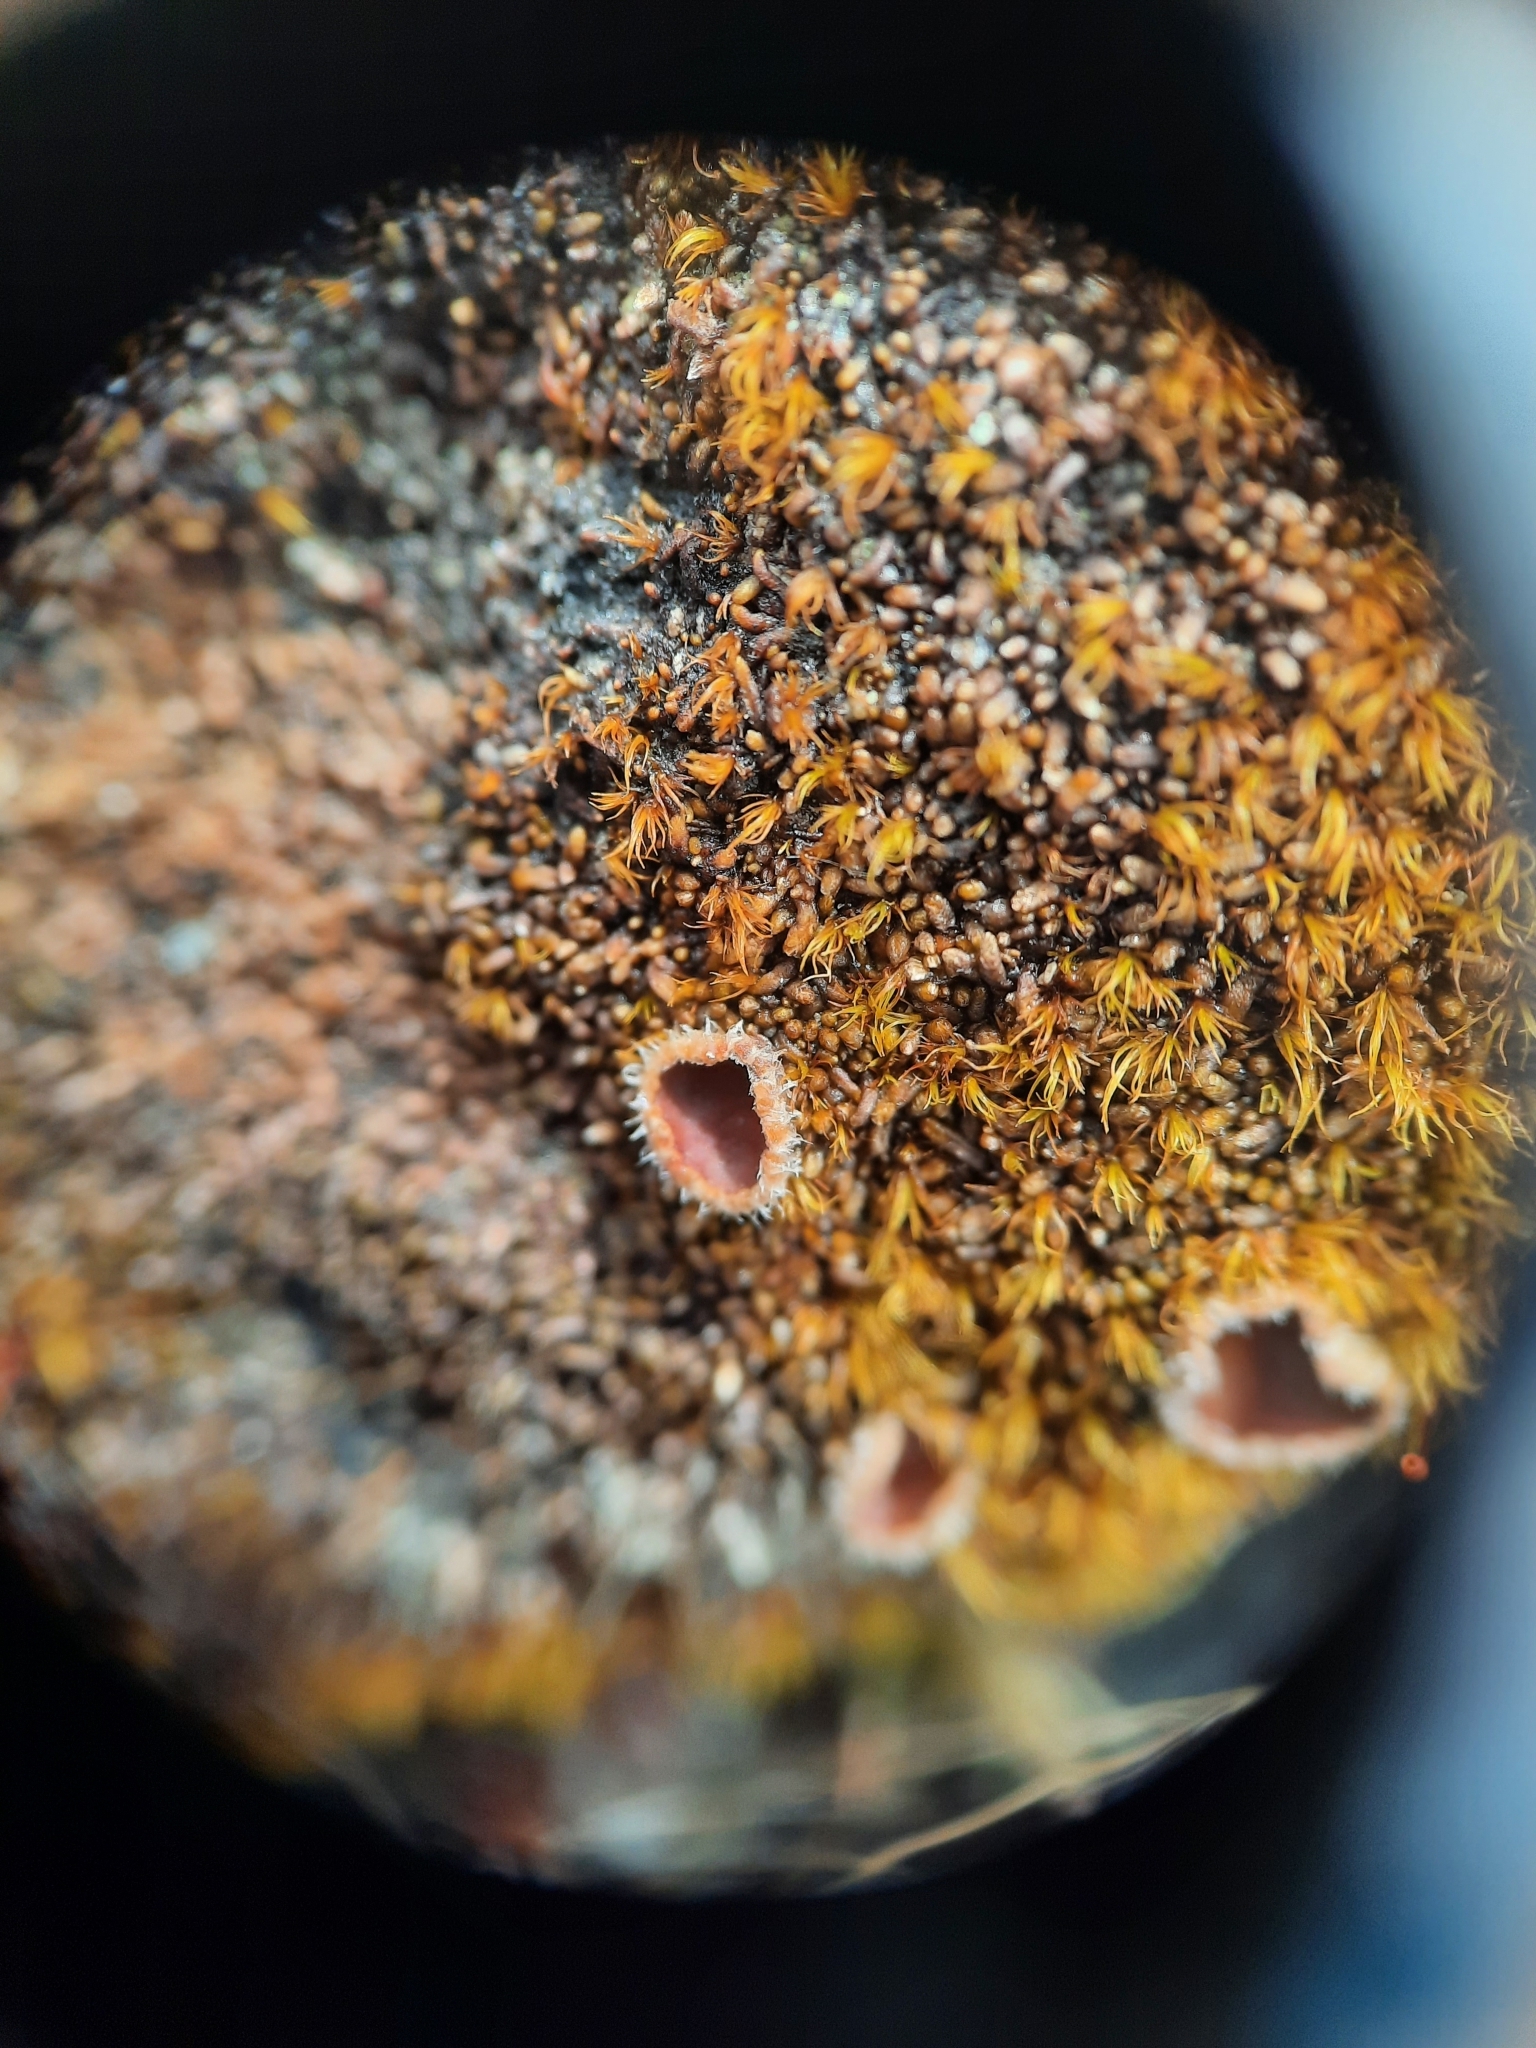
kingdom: Fungi
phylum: Ascomycota
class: Lecanoromycetes
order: Peltigerales
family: Pannariaceae
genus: Psoroma
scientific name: Psoroma paleaceum
